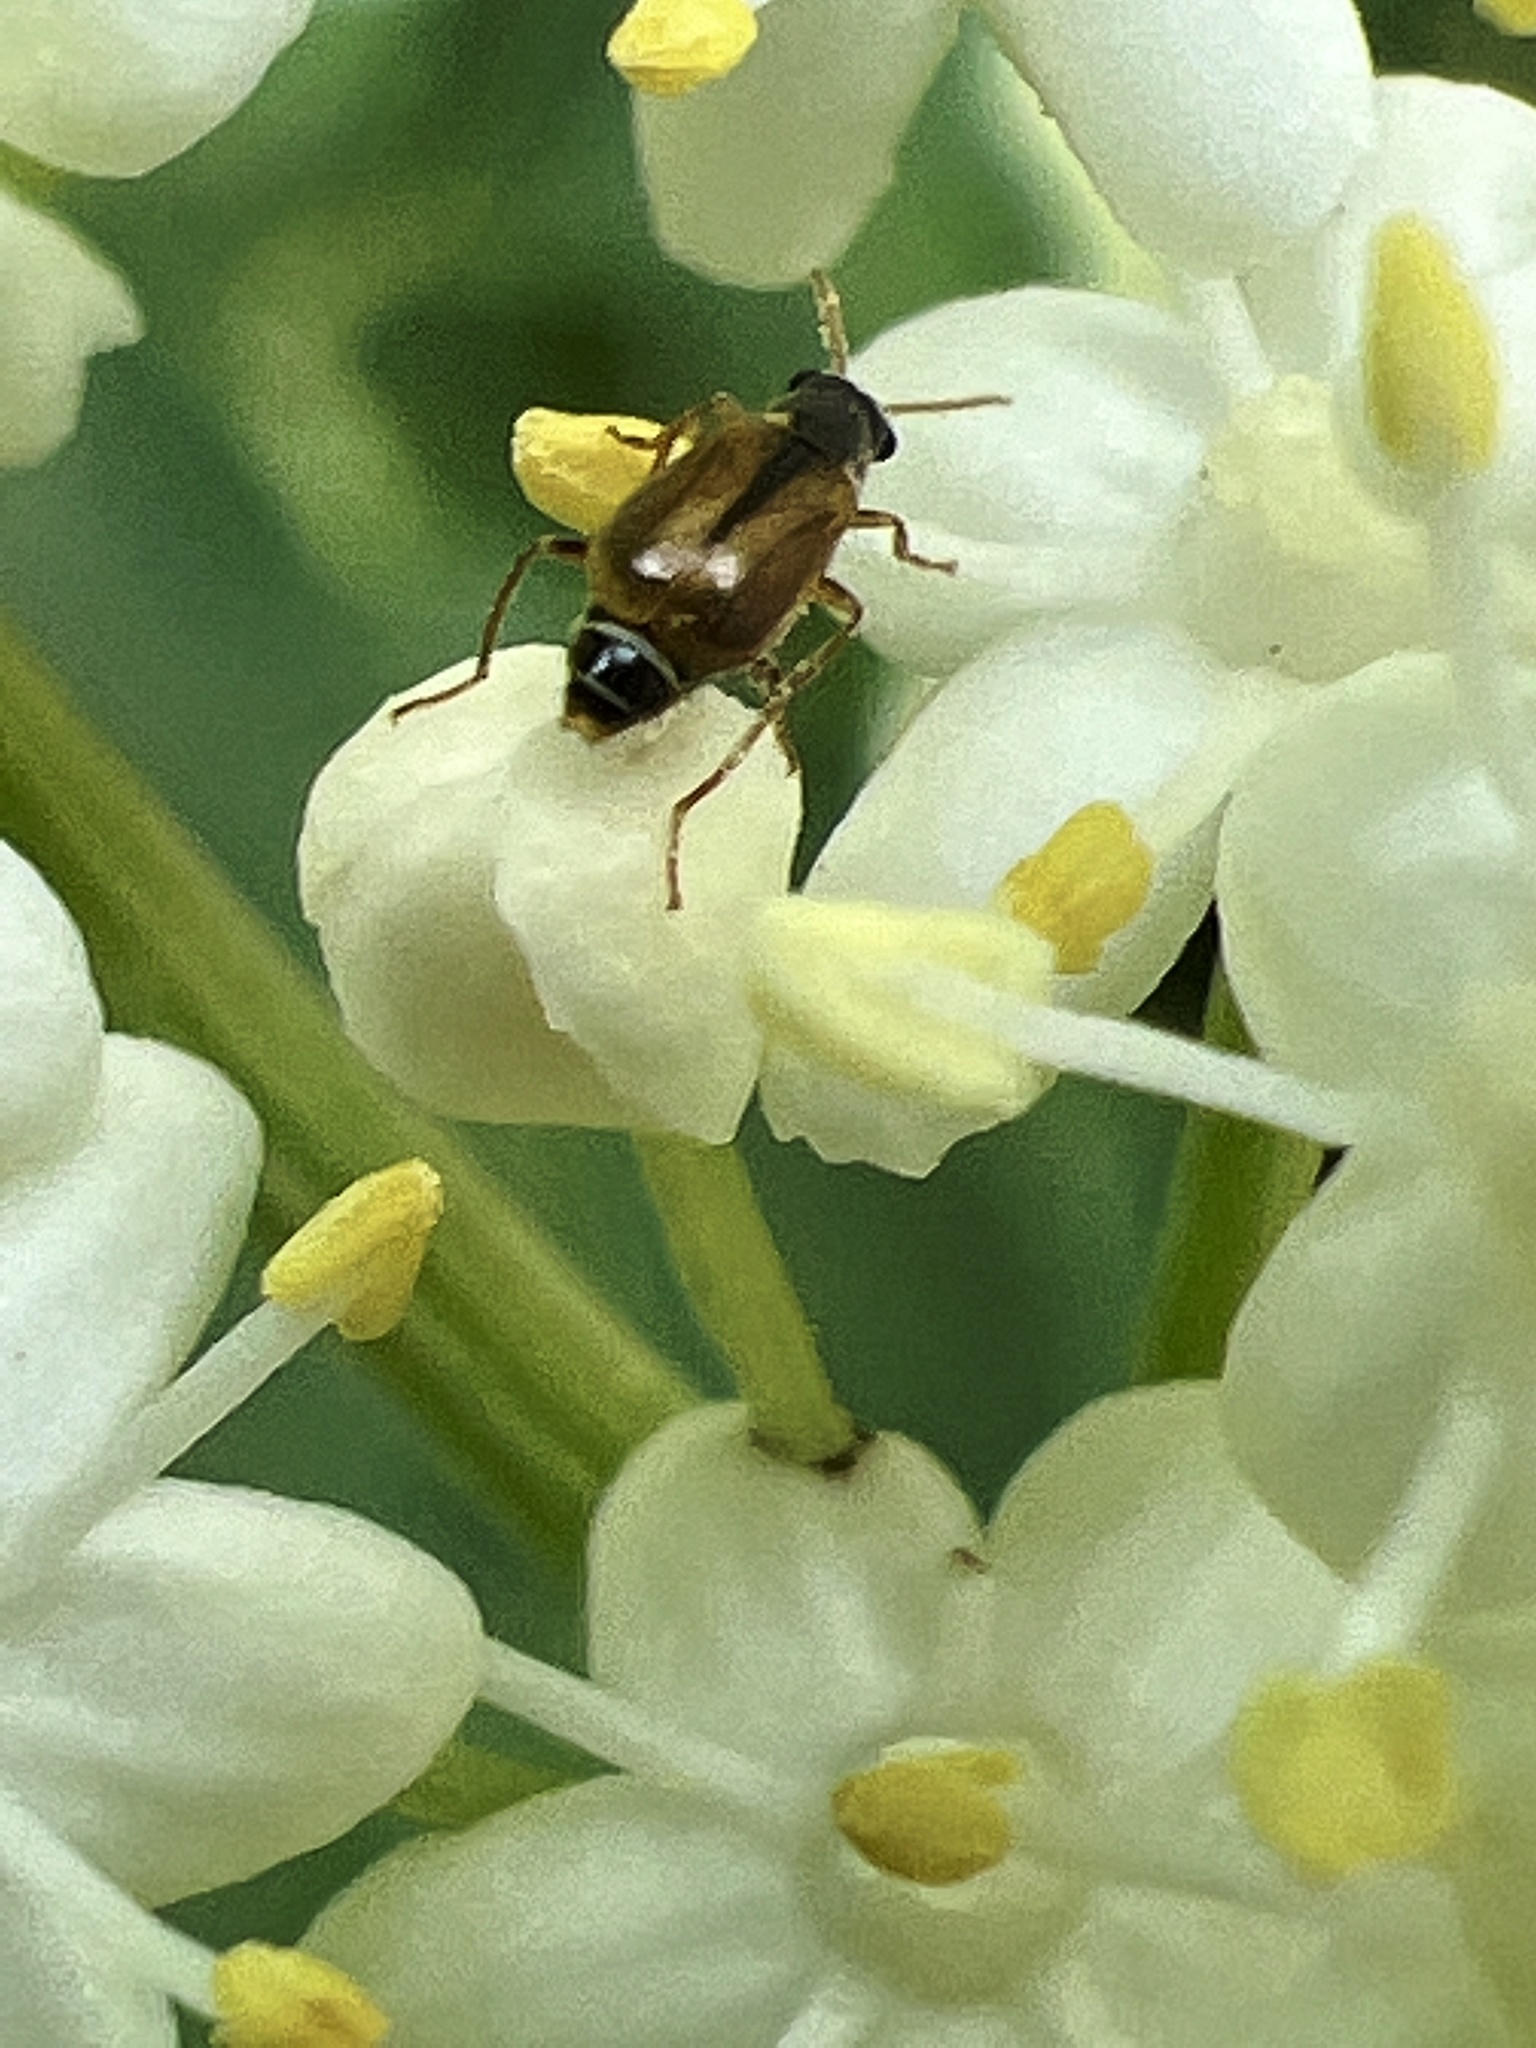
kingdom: Animalia
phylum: Arthropoda
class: Insecta
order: Coleoptera
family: Malachiidae
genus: Attalus
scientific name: Attalus
